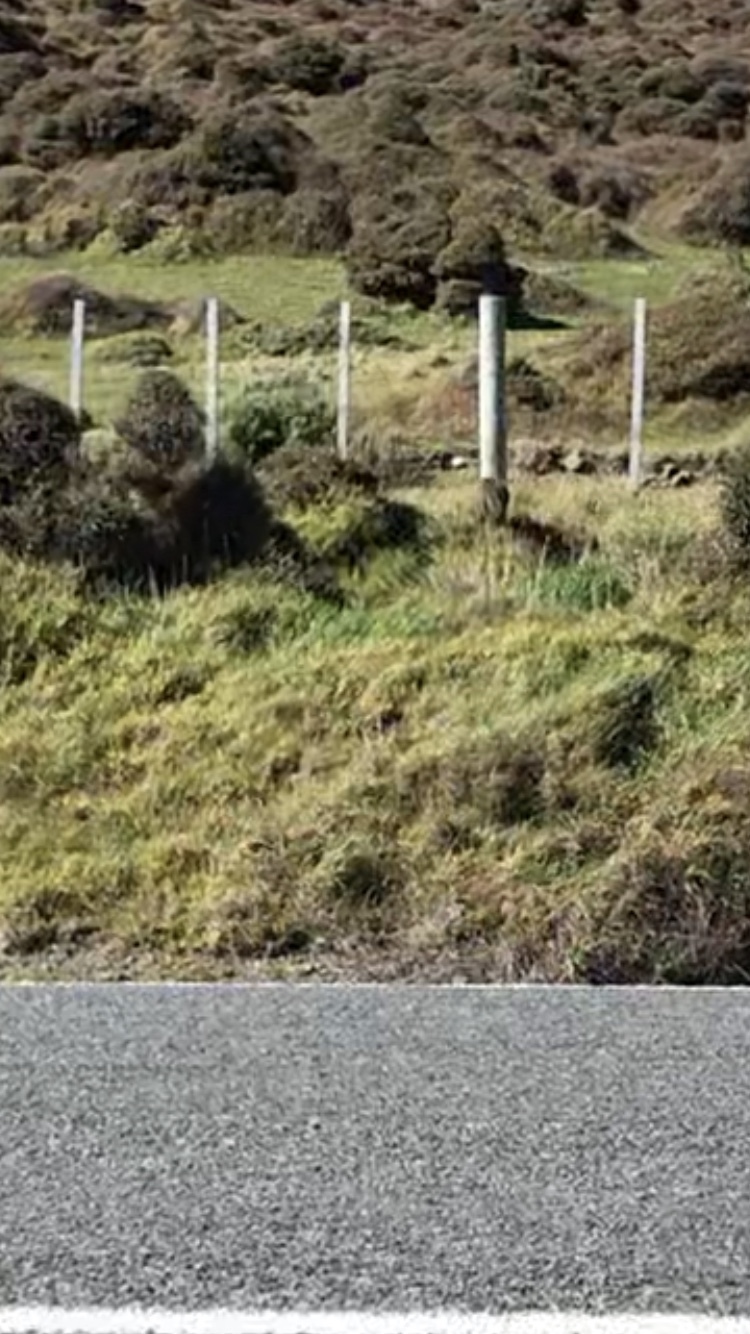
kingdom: Animalia
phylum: Chordata
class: Mammalia
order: Carnivora
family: Felidae
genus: Felis
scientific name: Felis catus
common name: Domestic cat
